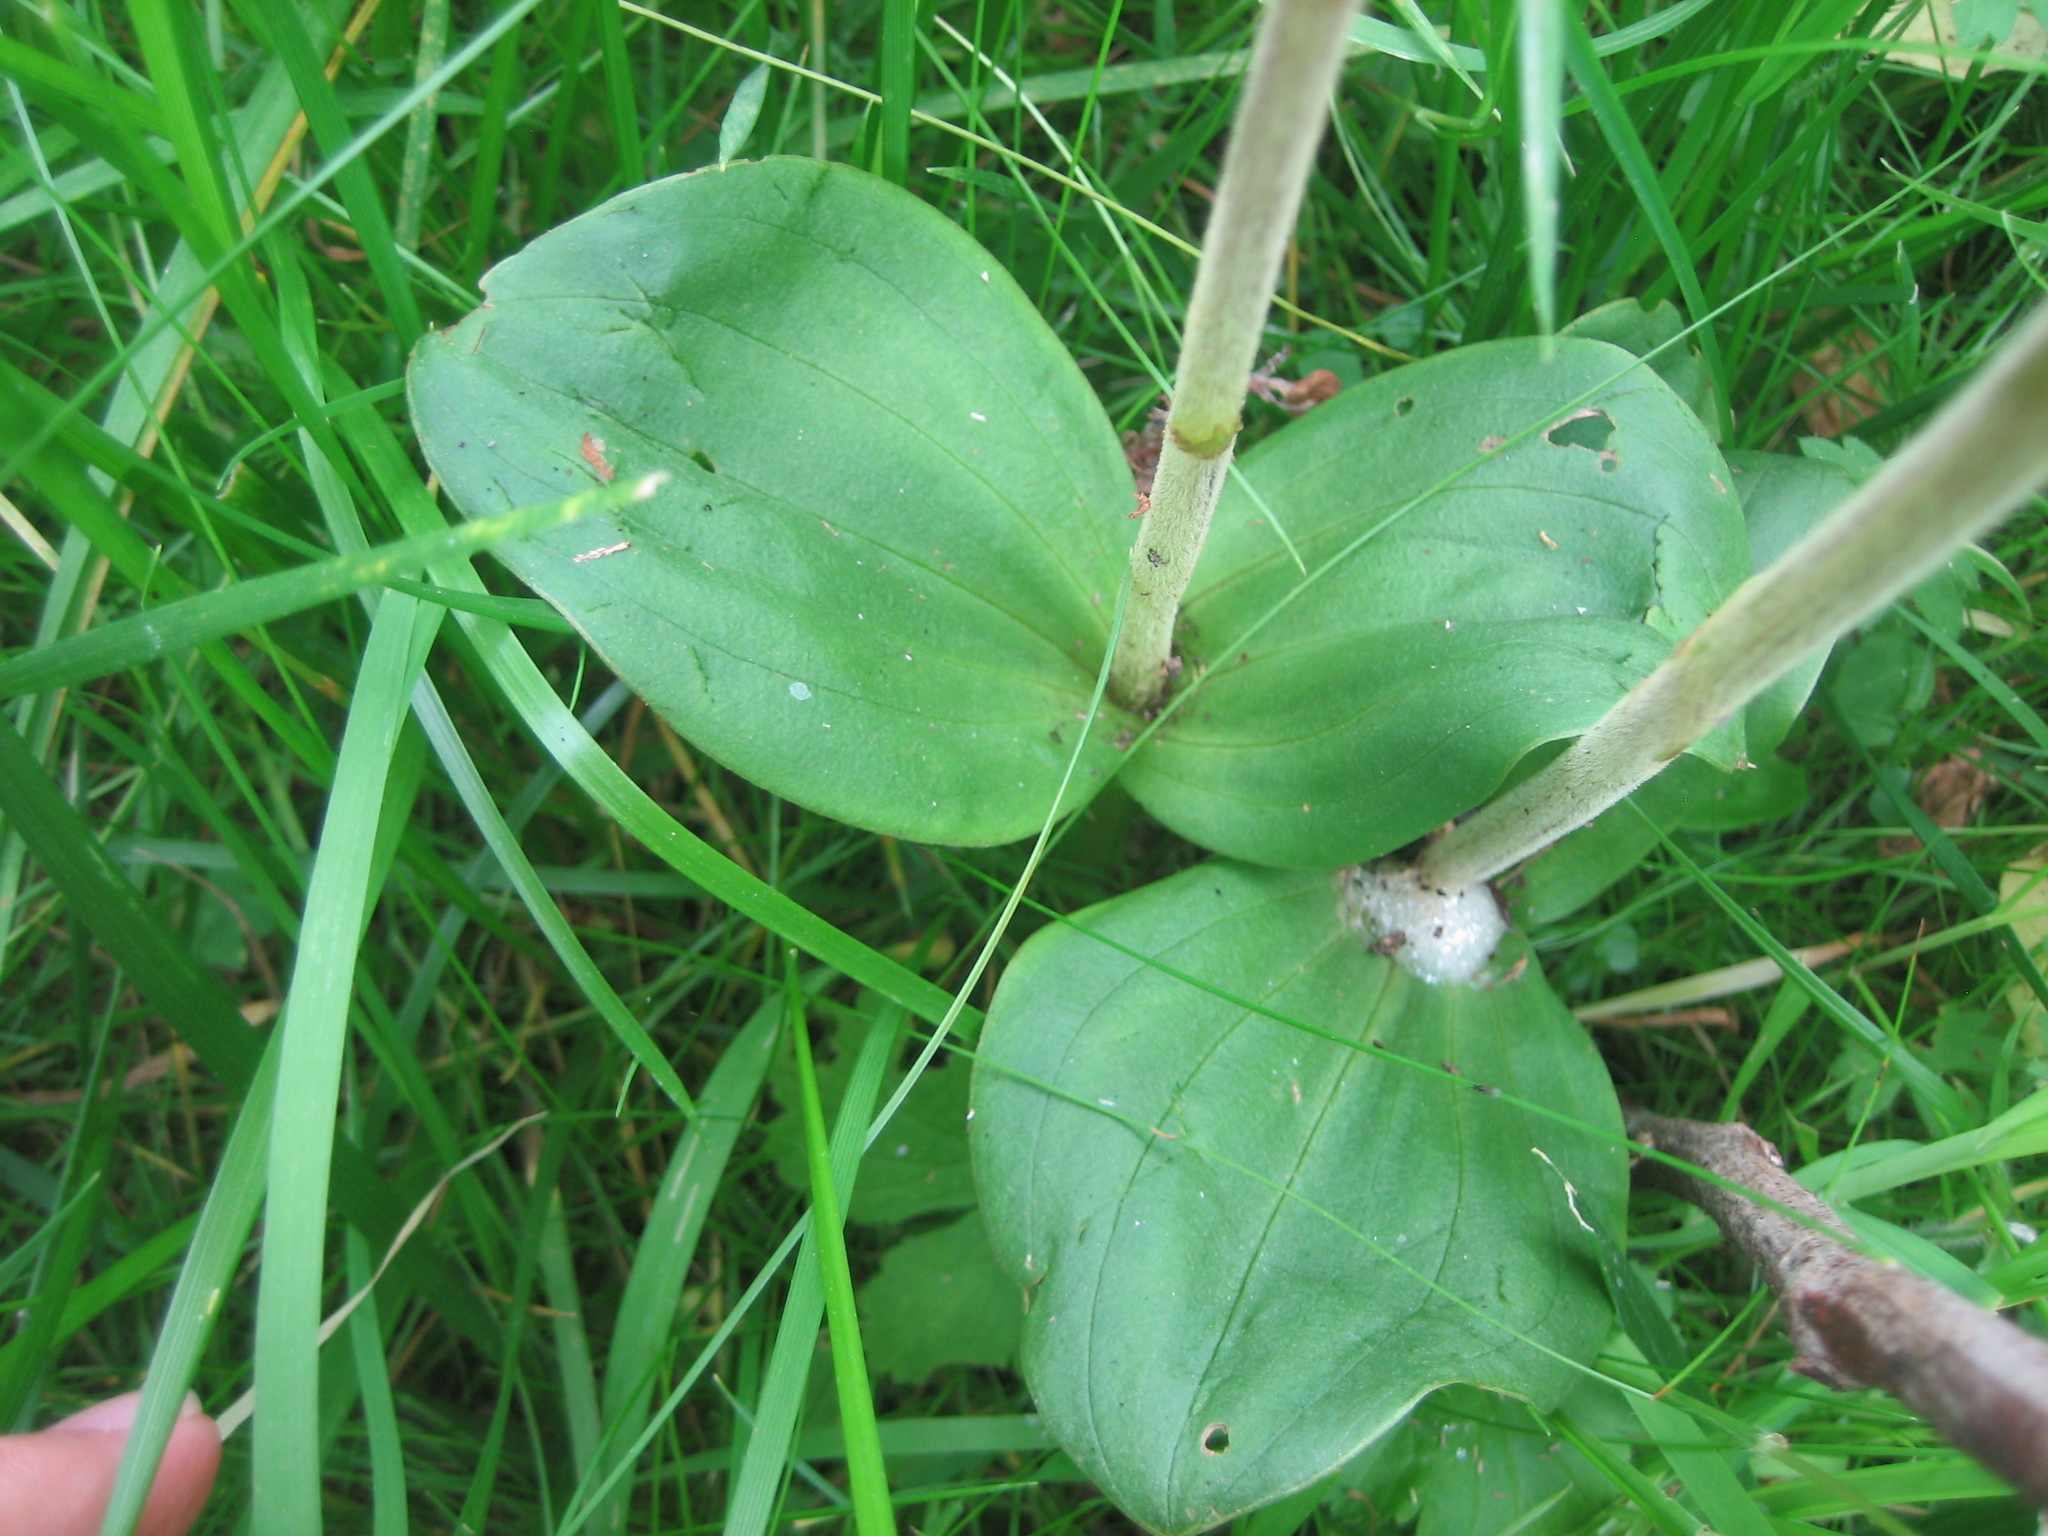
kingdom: Plantae
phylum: Tracheophyta
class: Liliopsida
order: Asparagales
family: Orchidaceae
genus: Neottia
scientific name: Neottia ovata
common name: Common twayblade
